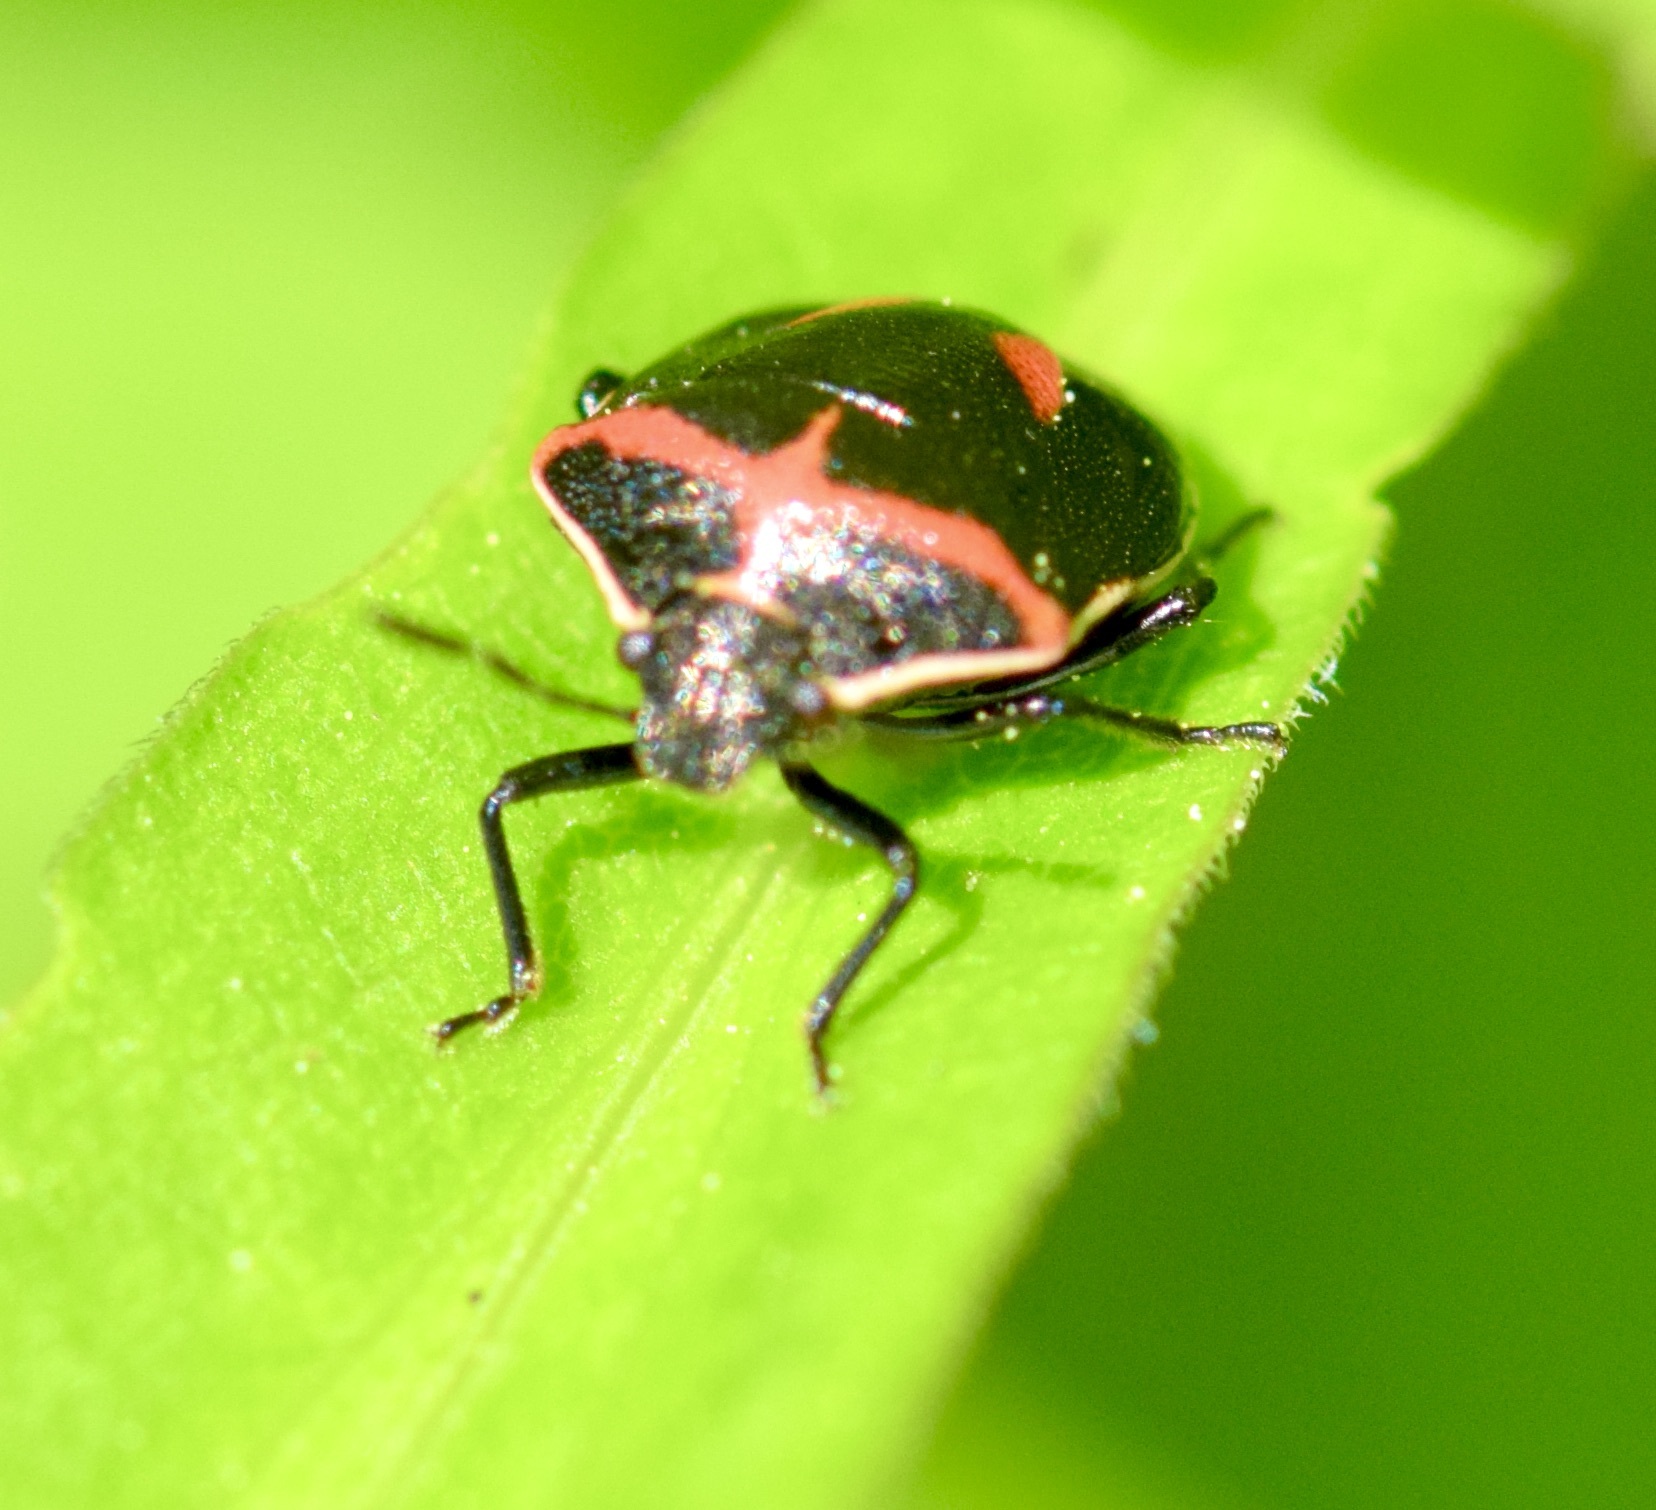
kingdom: Animalia
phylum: Arthropoda
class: Insecta
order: Hemiptera
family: Pentatomidae
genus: Cosmopepla
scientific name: Cosmopepla lintneriana
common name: Twice-stabbed stink bug
